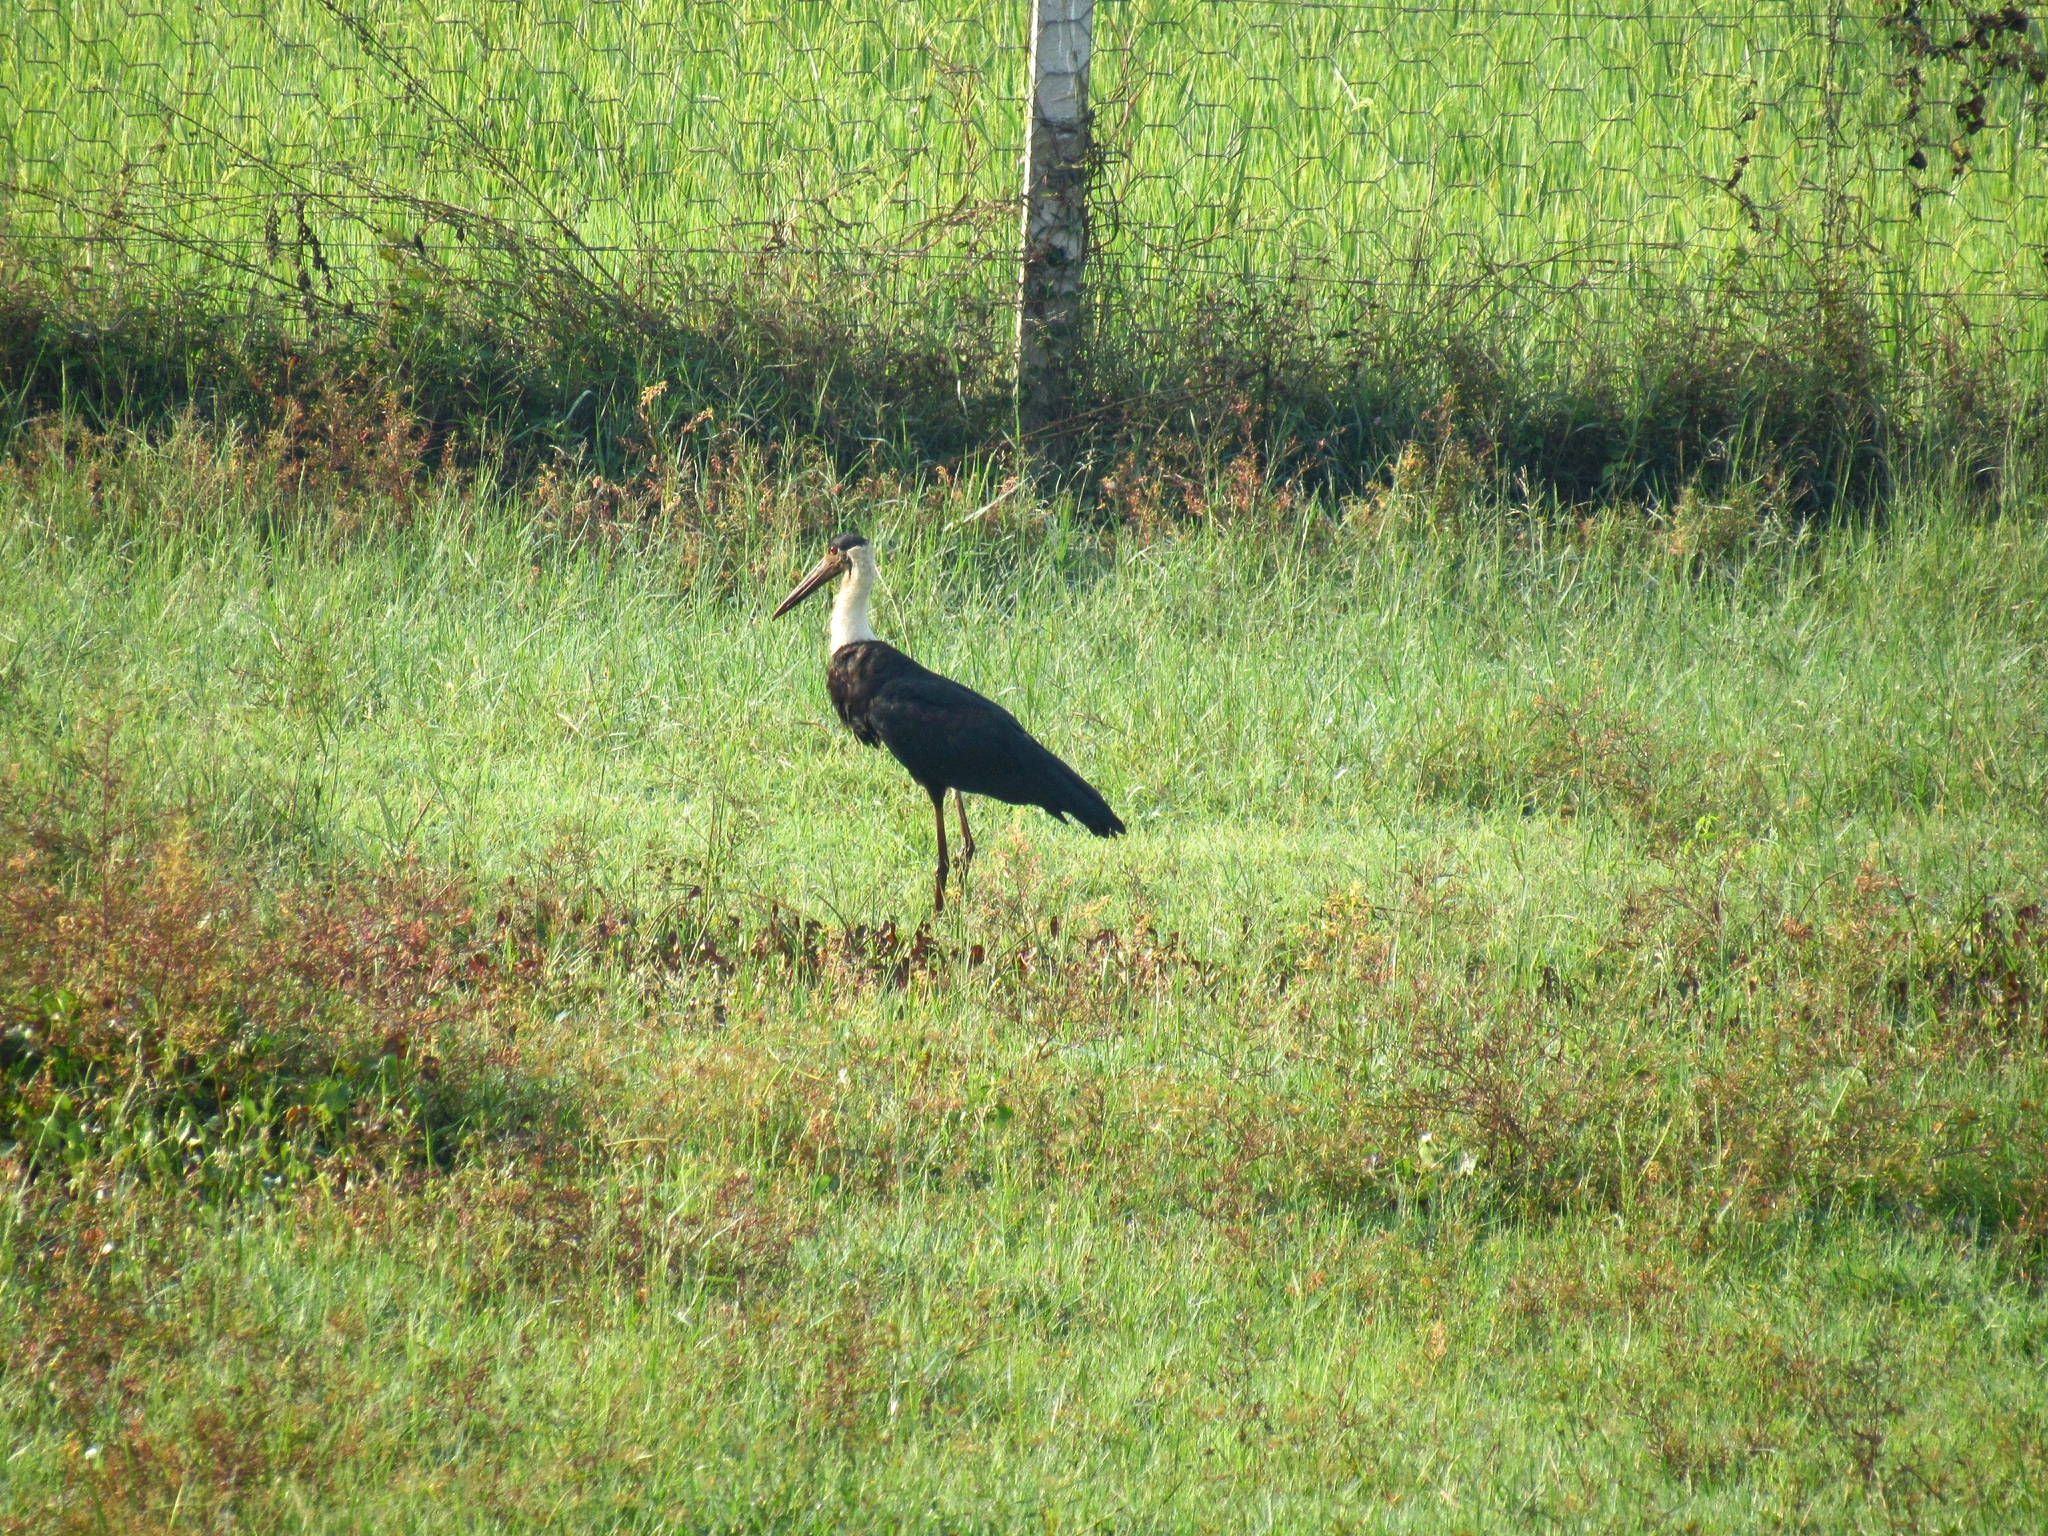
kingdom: Animalia
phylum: Chordata
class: Aves
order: Ciconiiformes
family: Ciconiidae
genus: Ciconia
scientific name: Ciconia episcopus
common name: Woolly-necked stork
